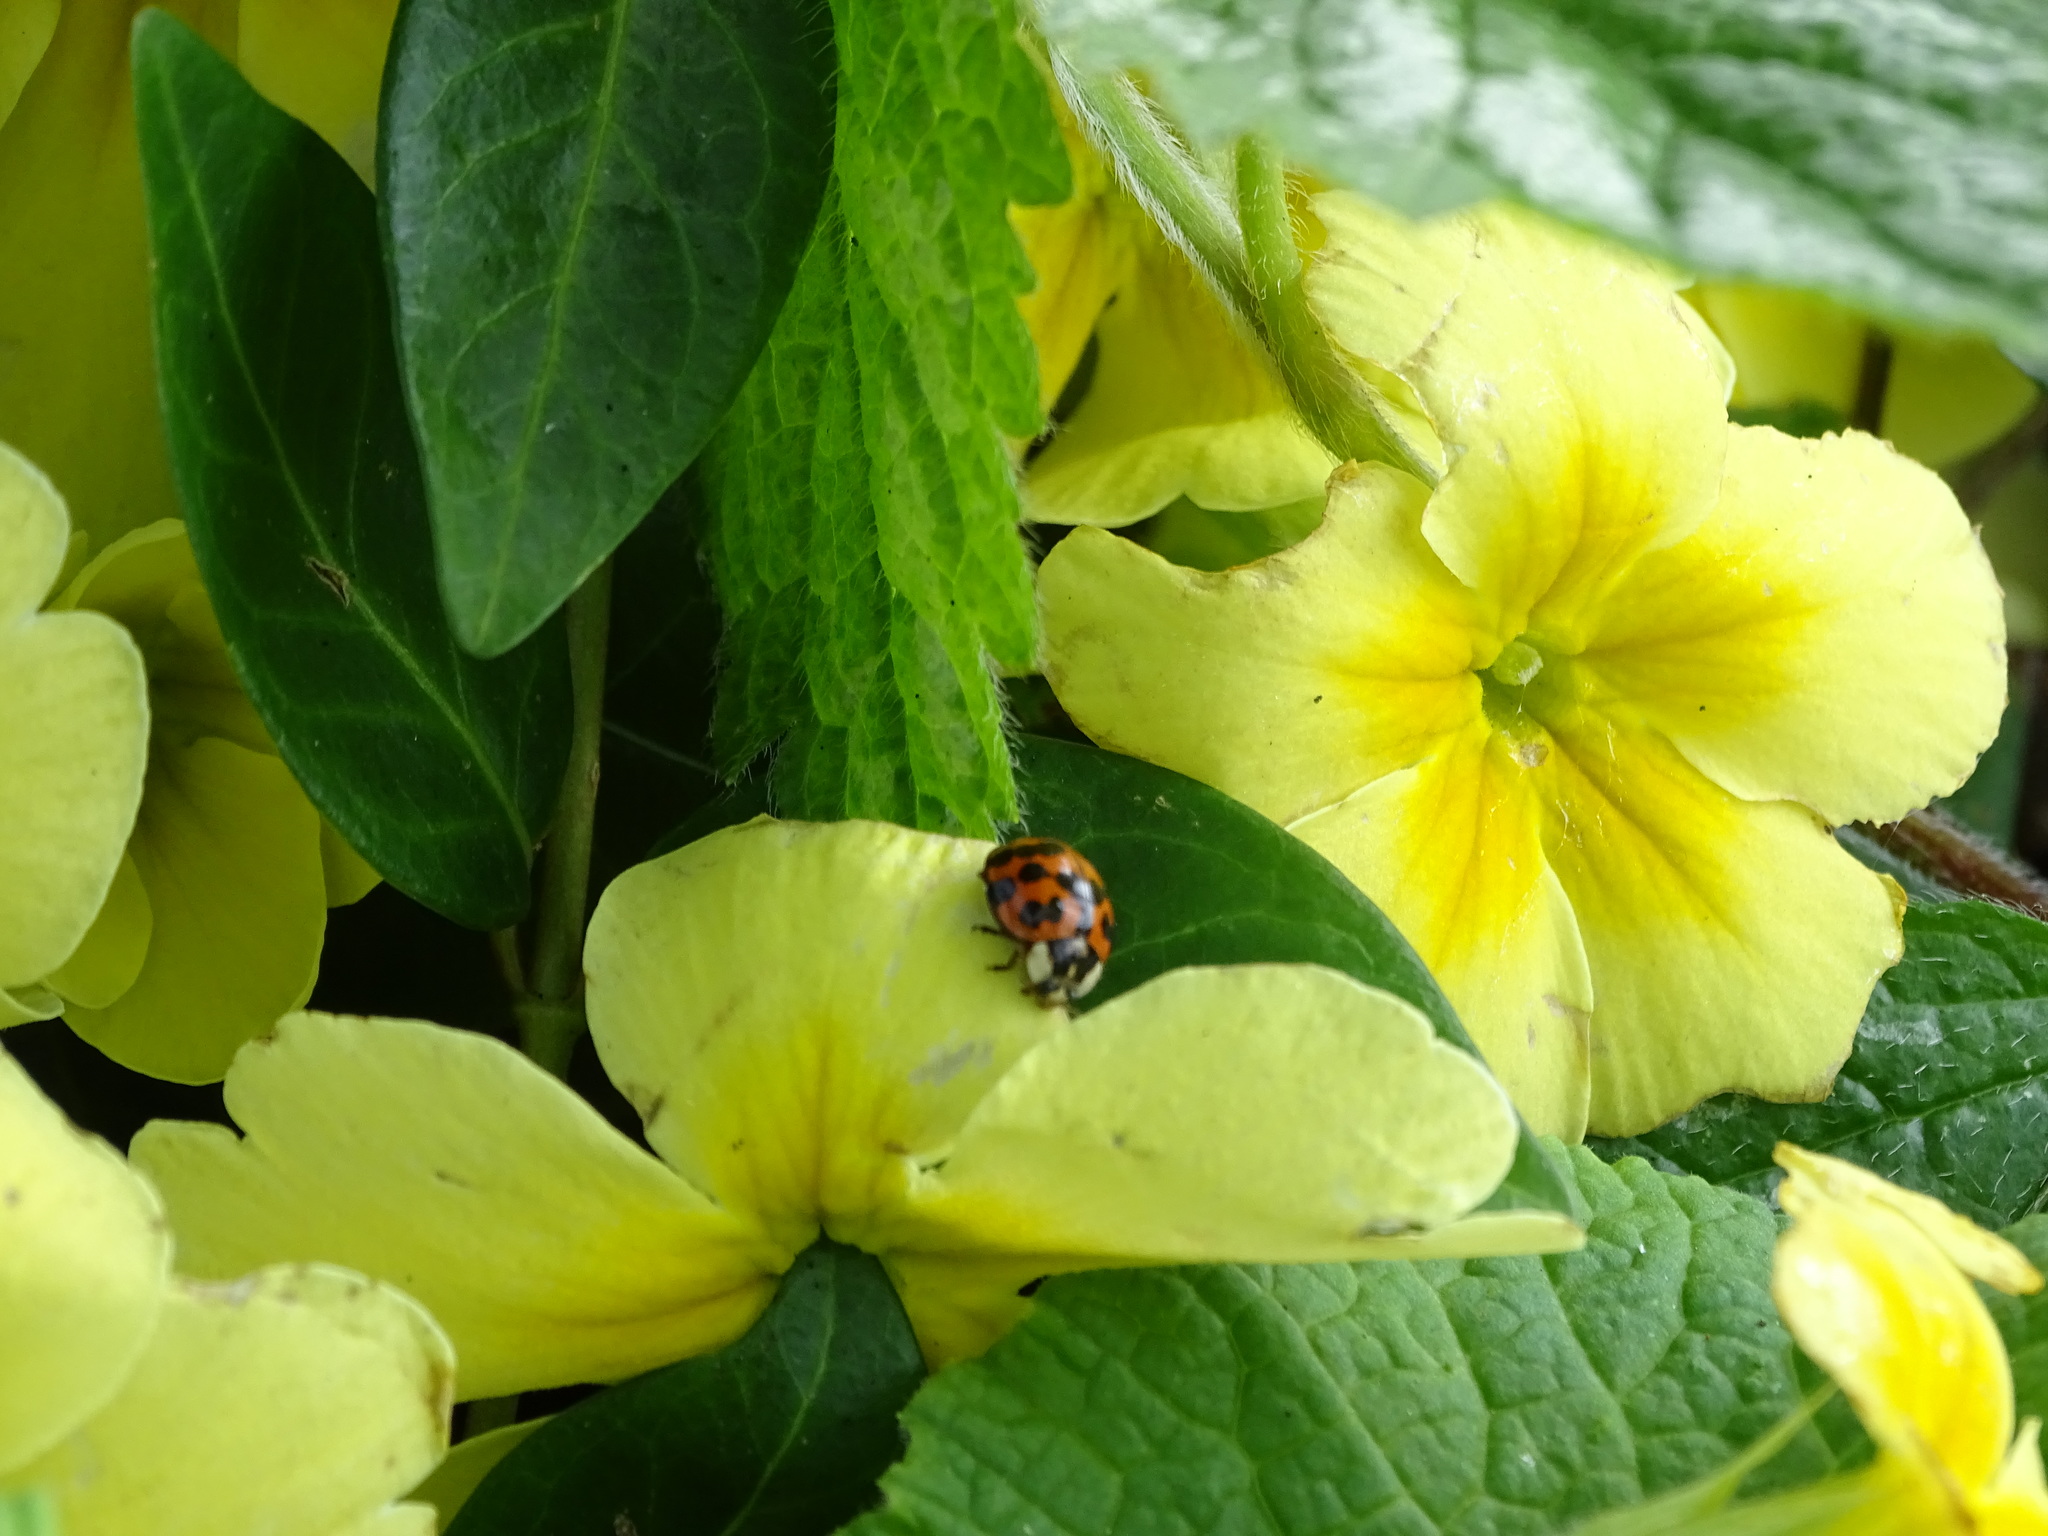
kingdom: Animalia
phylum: Arthropoda
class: Insecta
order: Coleoptera
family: Coccinellidae
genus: Harmonia
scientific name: Harmonia axyridis
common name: Harlequin ladybird
